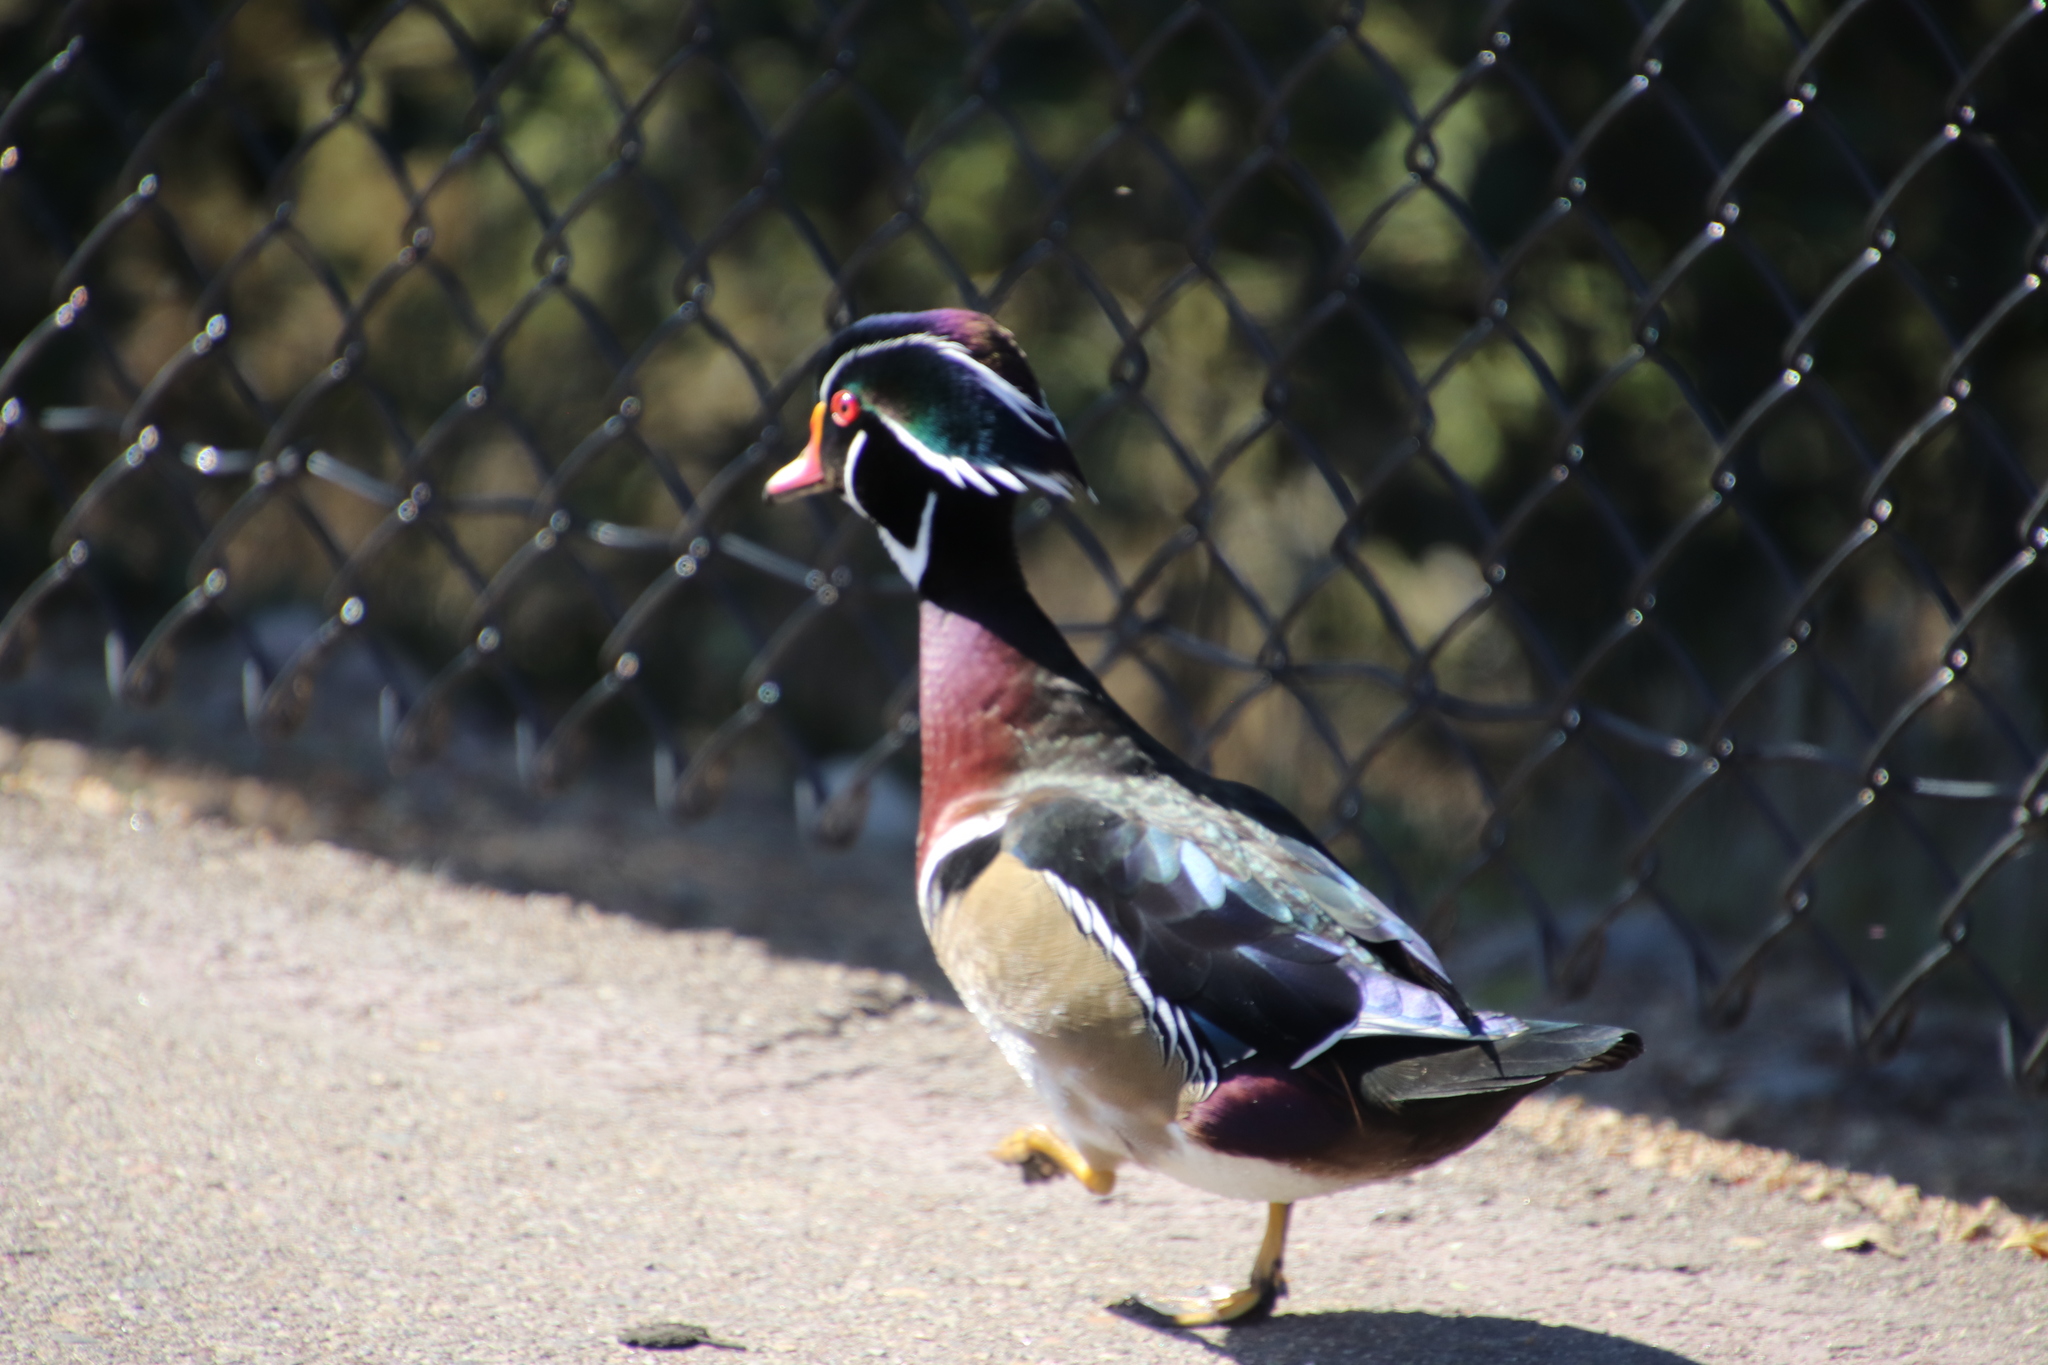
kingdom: Animalia
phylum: Chordata
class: Aves
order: Anseriformes
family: Anatidae
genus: Aix
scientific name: Aix sponsa
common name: Wood duck
